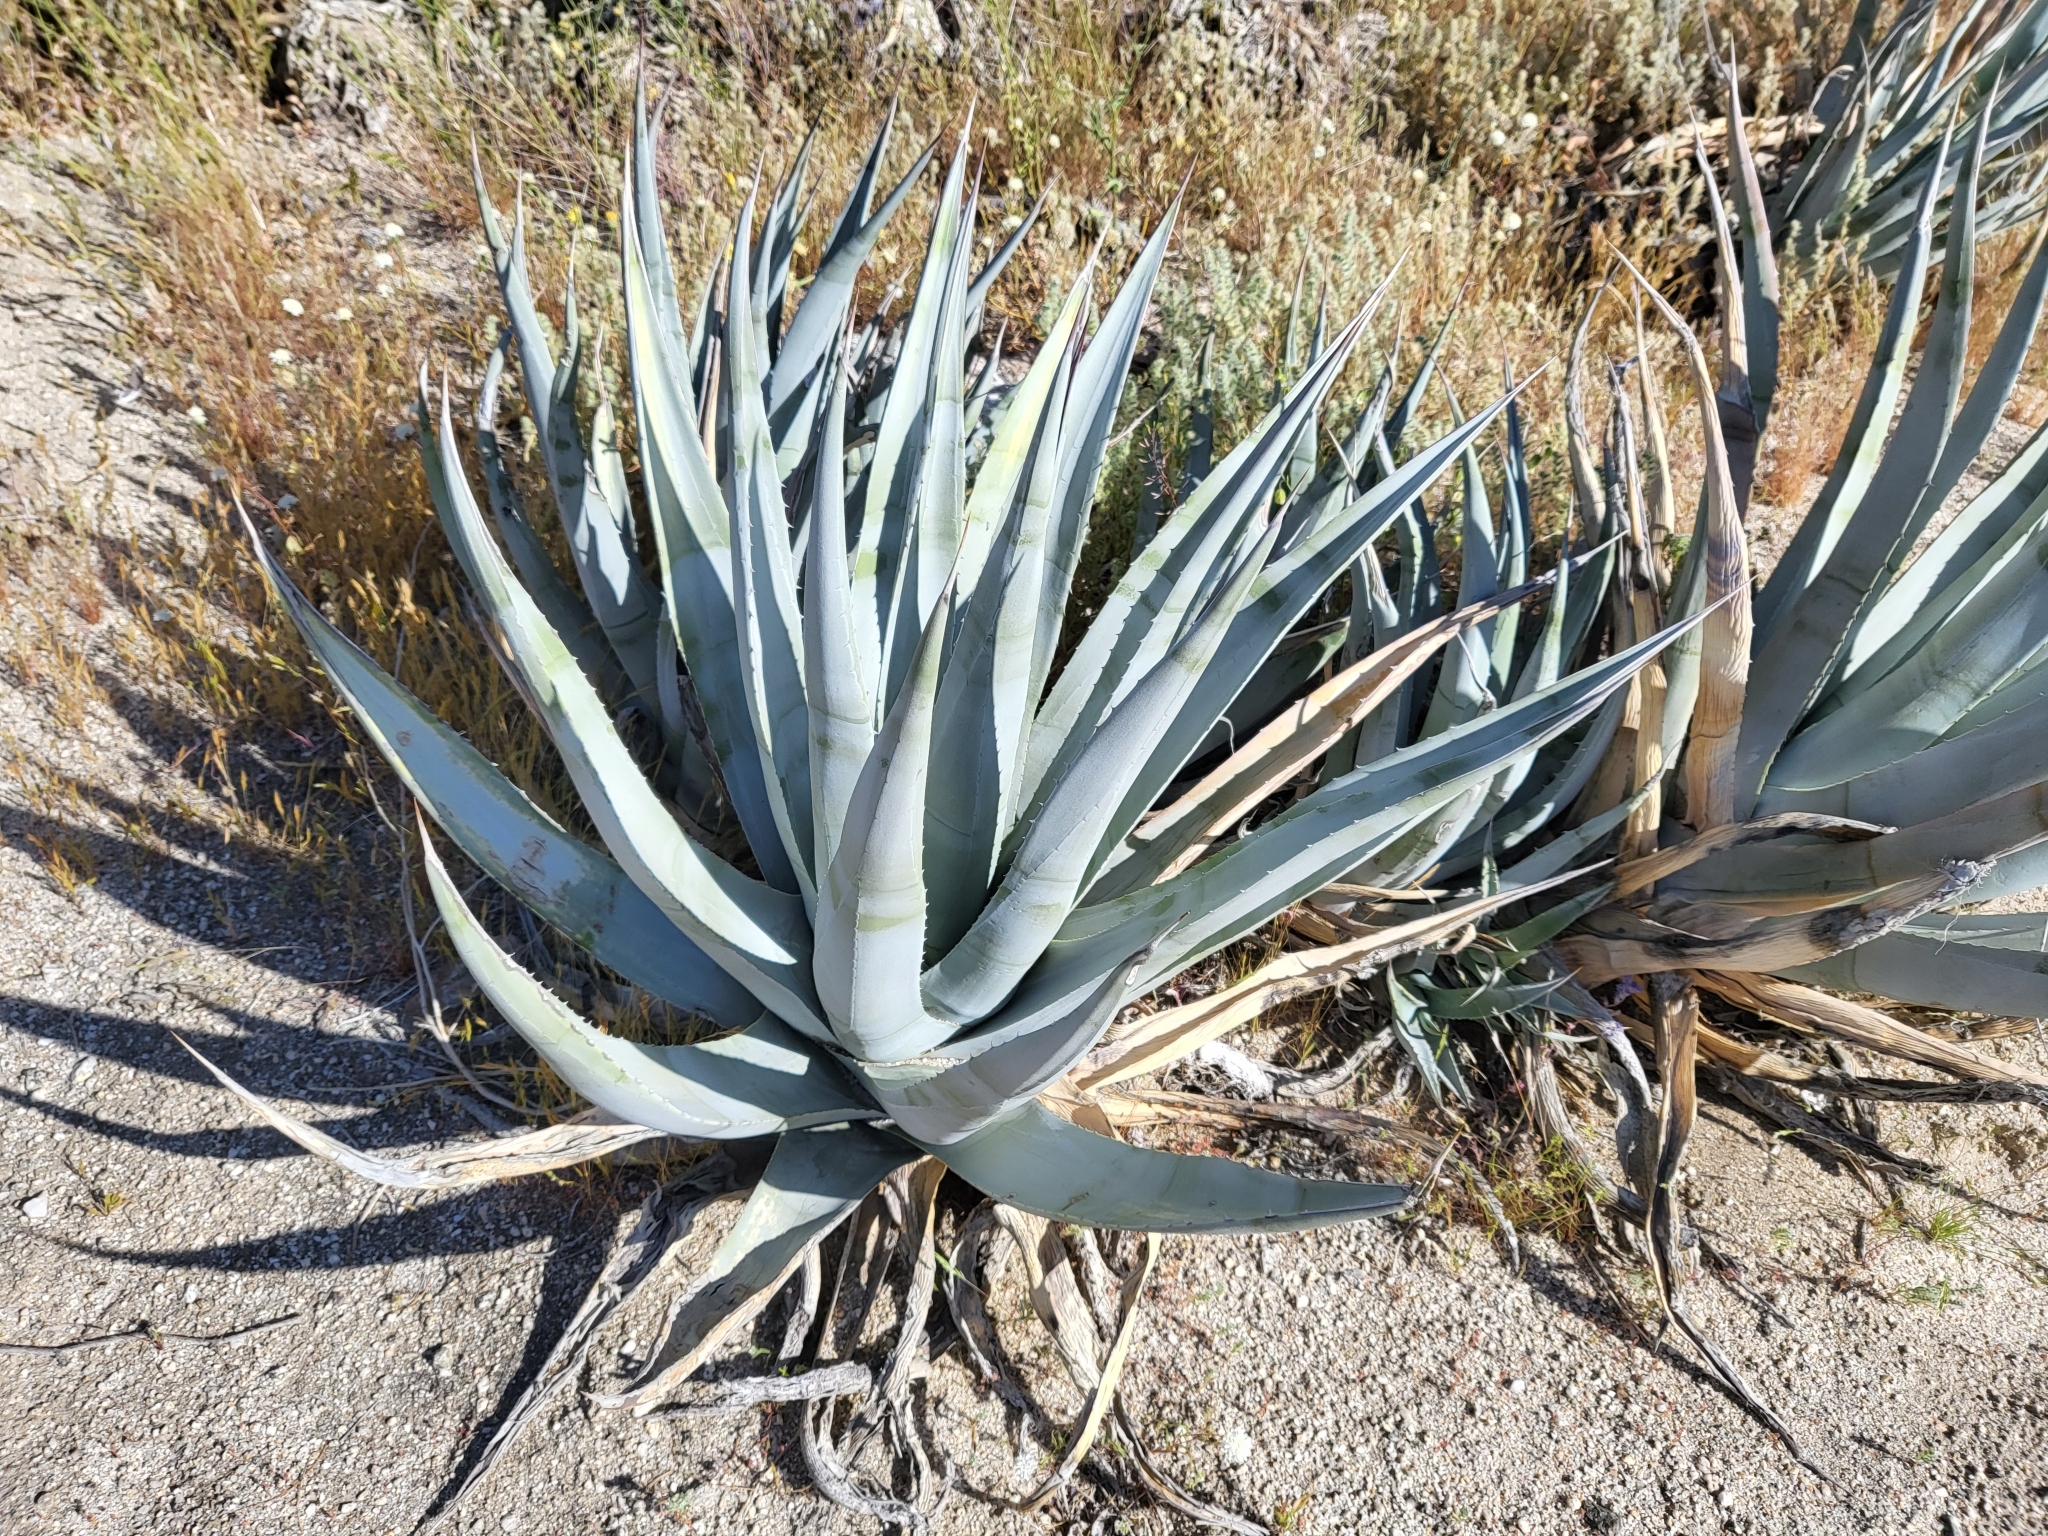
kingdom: Plantae
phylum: Tracheophyta
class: Liliopsida
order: Asparagales
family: Asparagaceae
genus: Agave
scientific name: Agave deserti
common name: Desert agave
